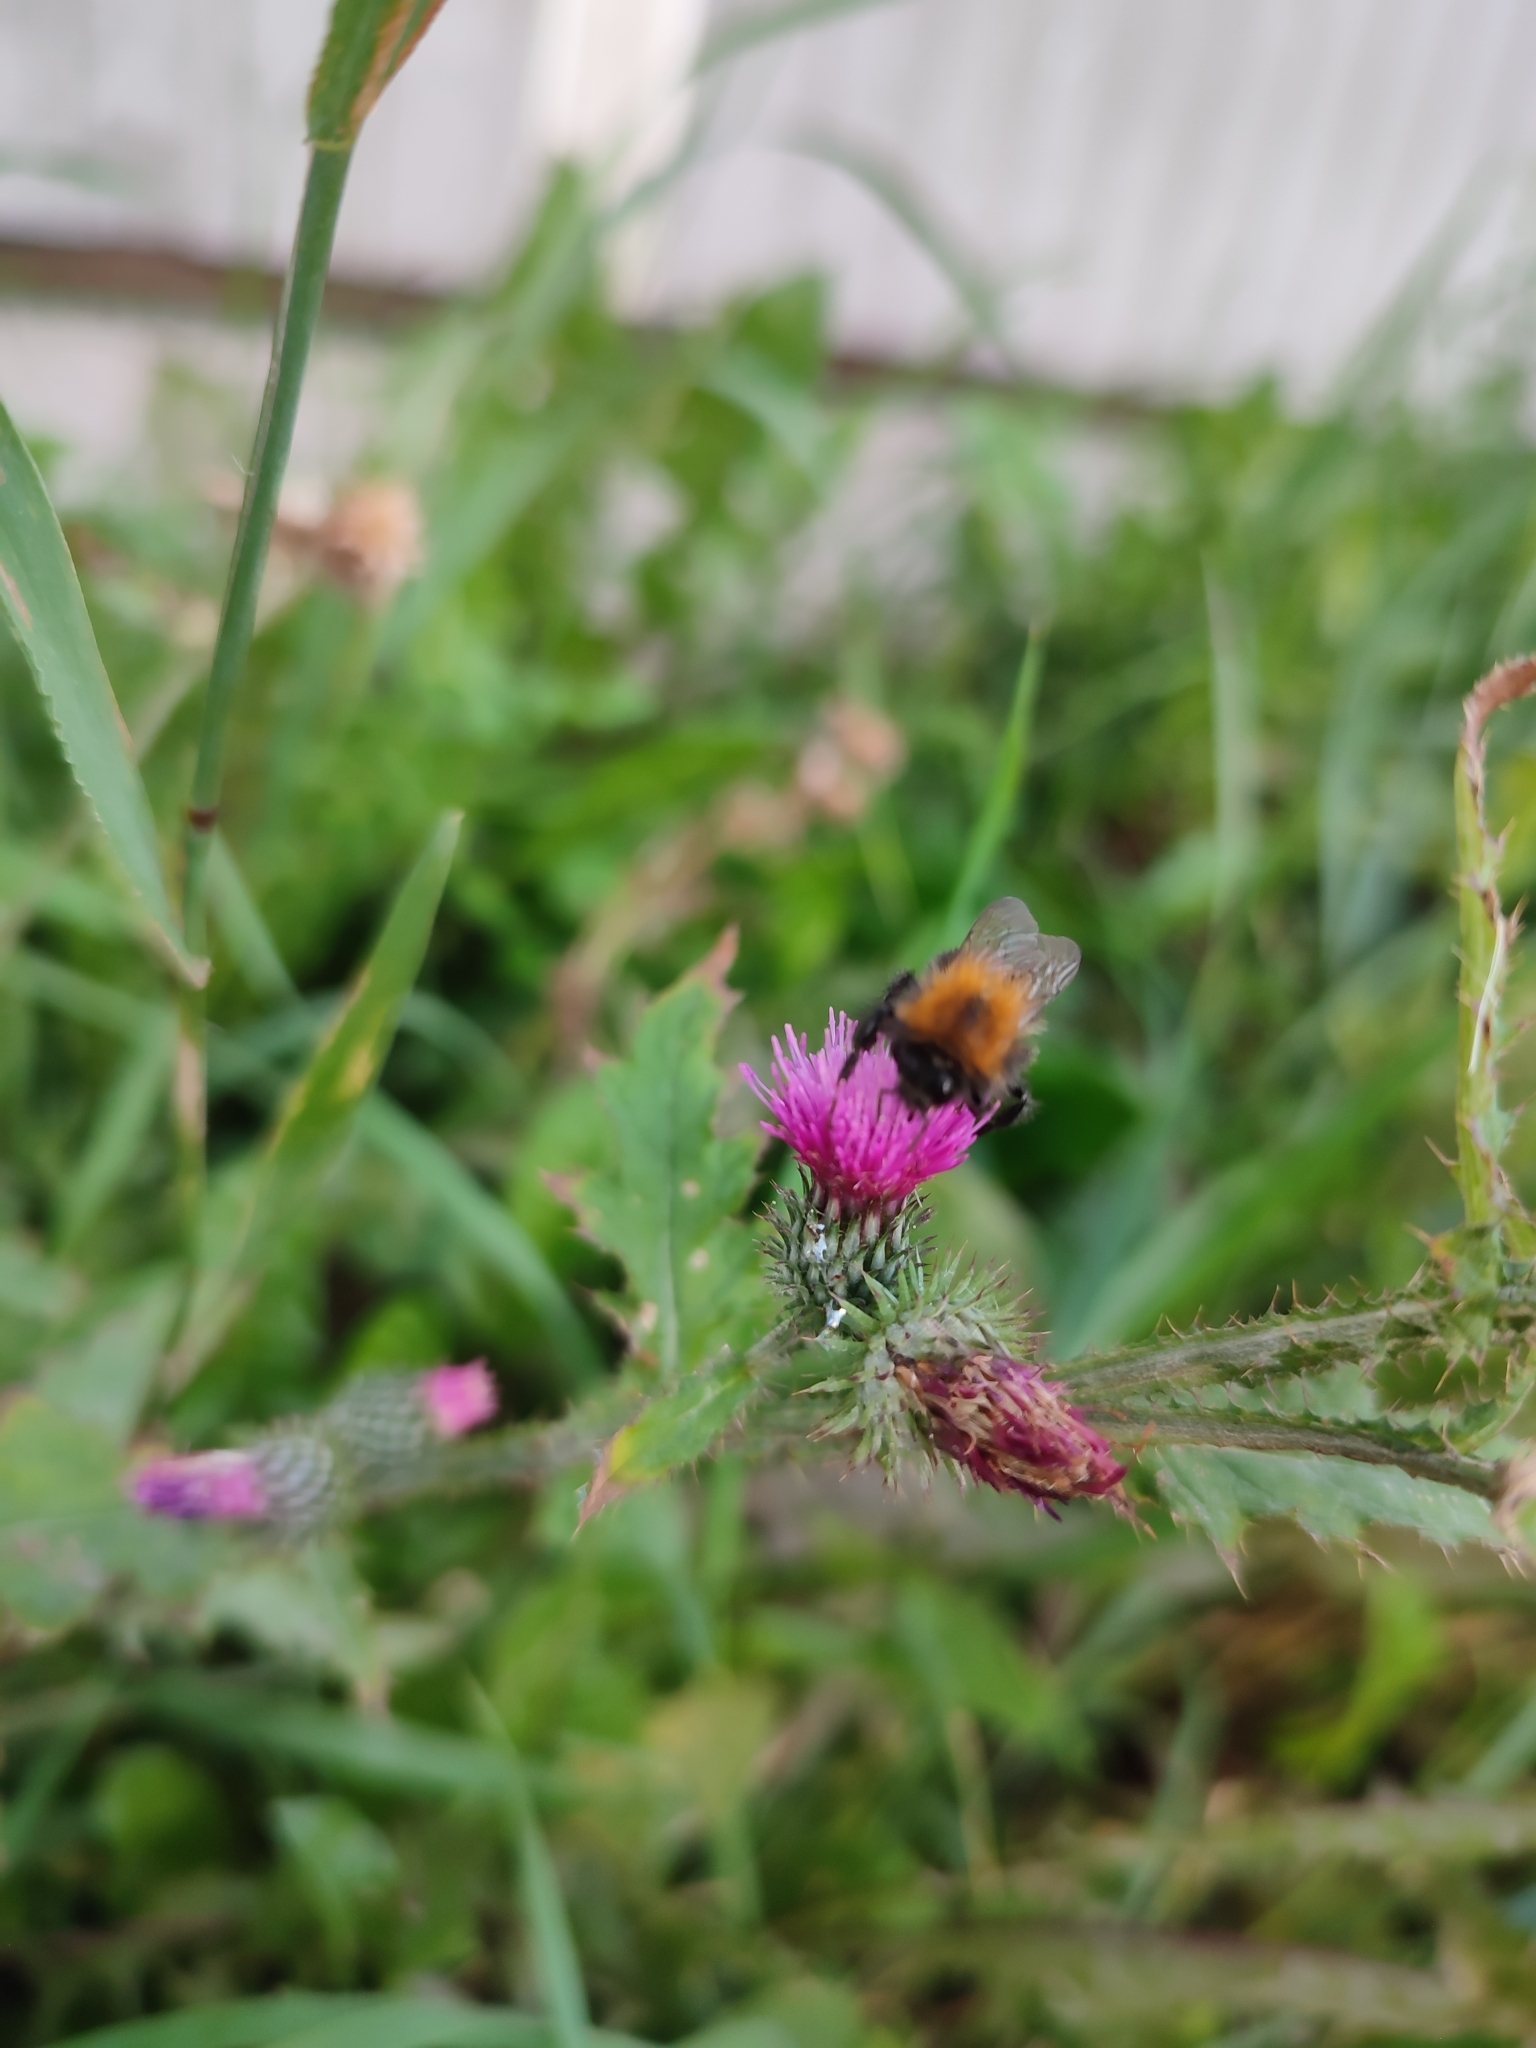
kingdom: Animalia
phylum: Arthropoda
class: Insecta
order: Hymenoptera
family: Apidae
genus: Bombus
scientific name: Bombus hypnorum
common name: New garden bumblebee
